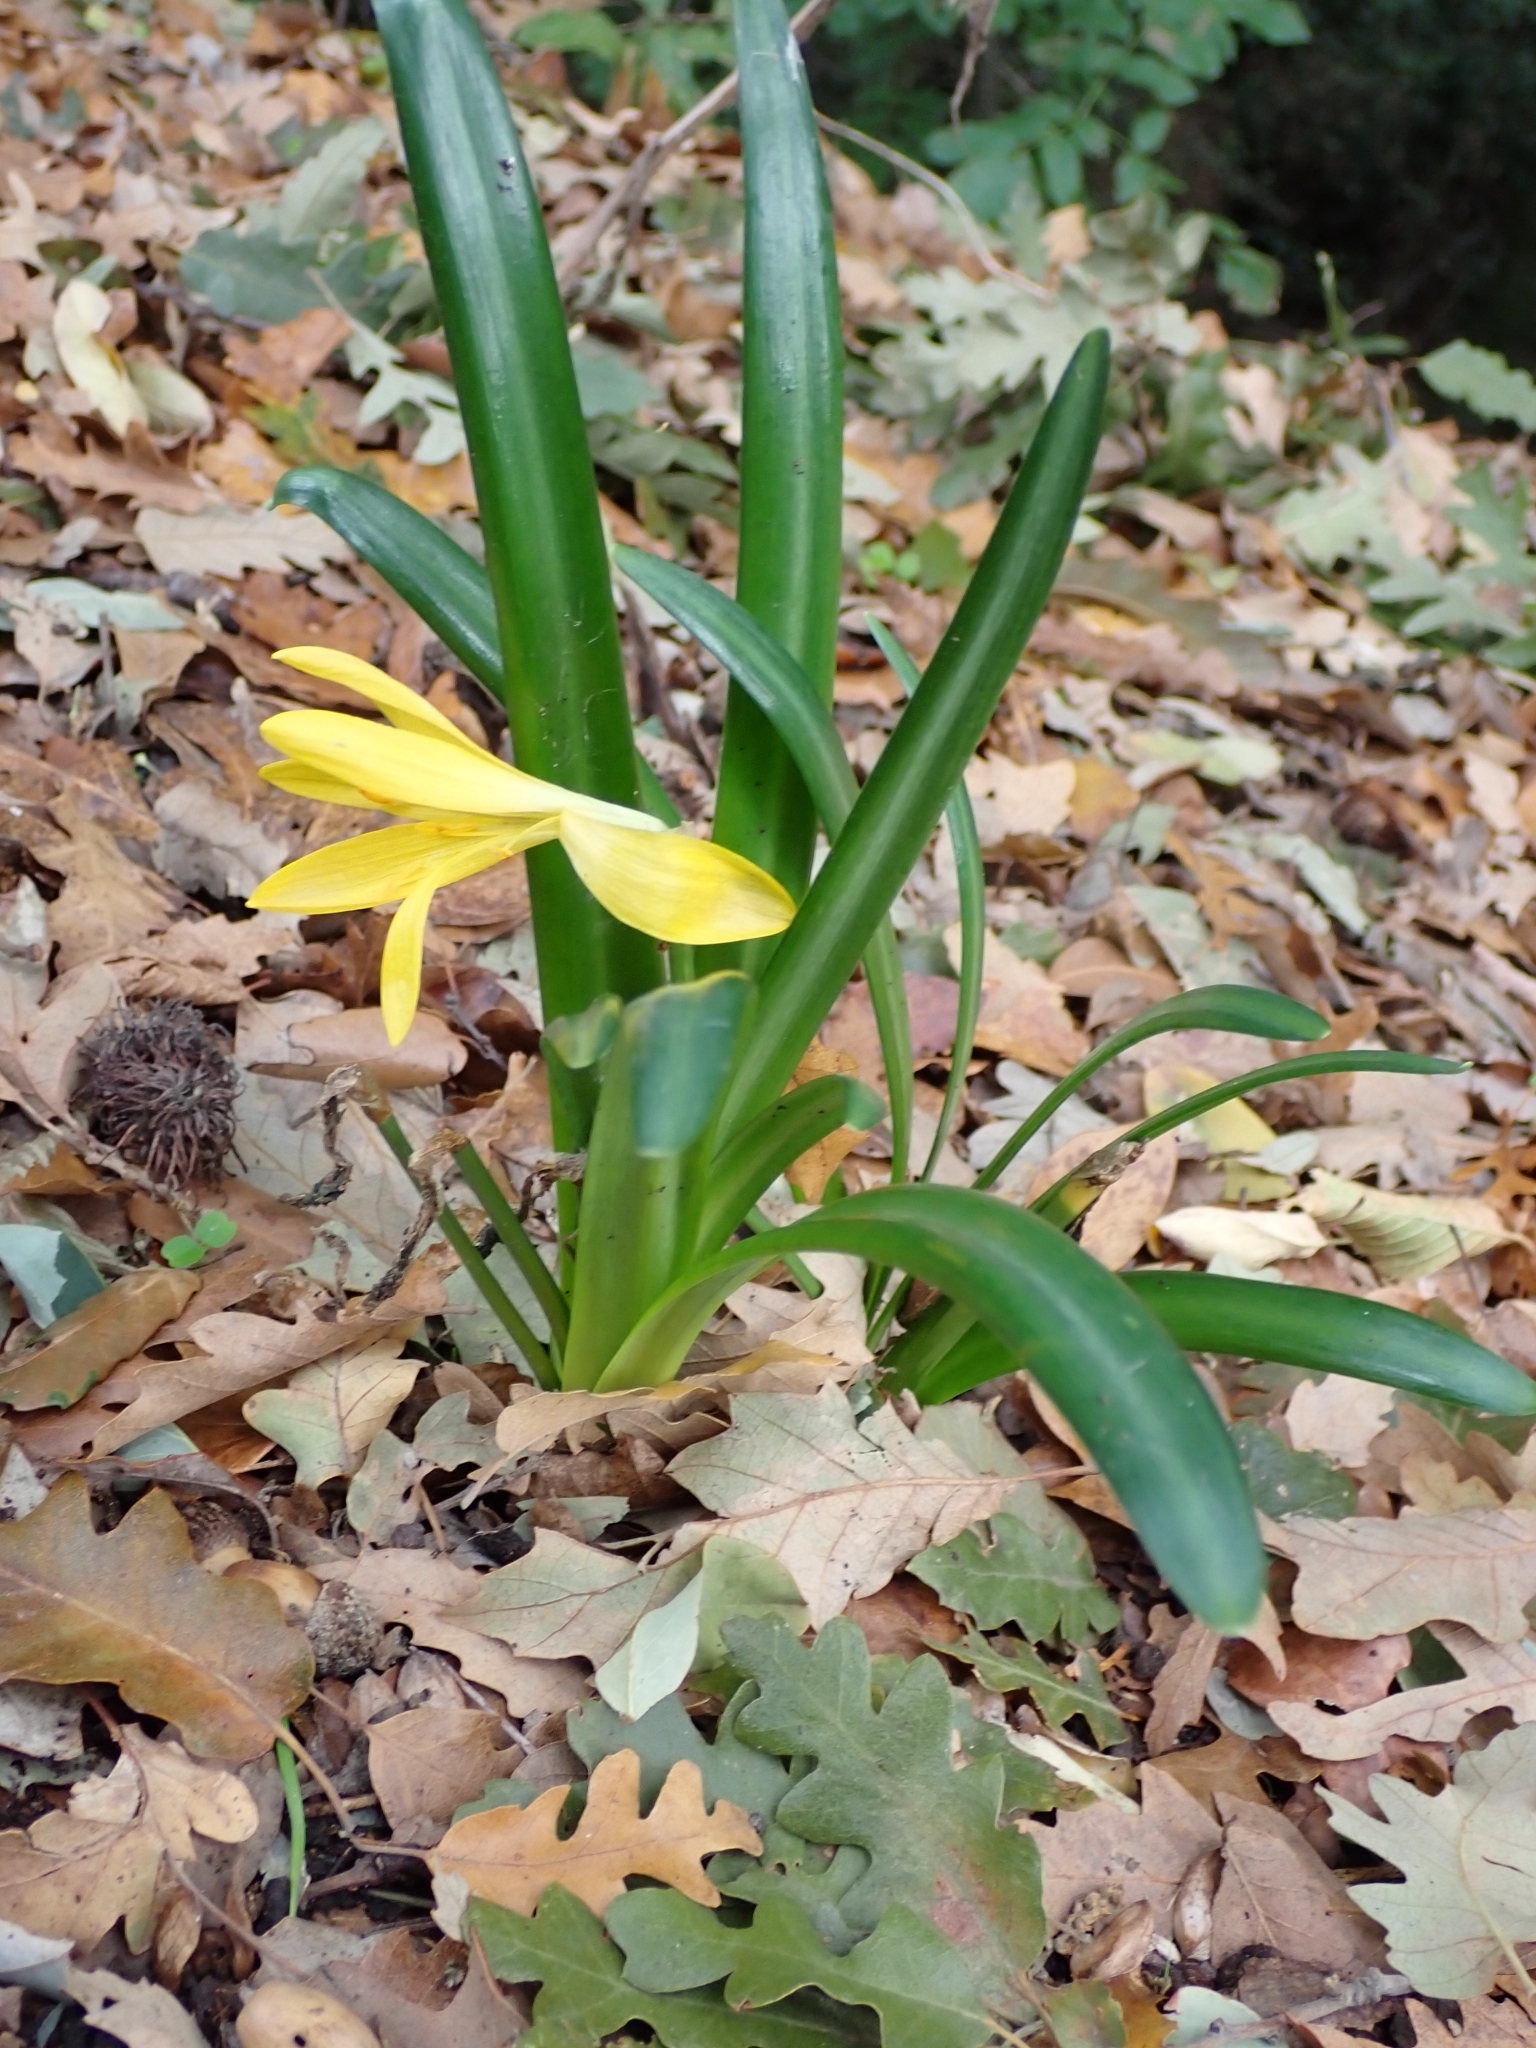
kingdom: Plantae
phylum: Tracheophyta
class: Liliopsida
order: Asparagales
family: Amaryllidaceae
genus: Sternbergia
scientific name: Sternbergia lutea
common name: Winter daffodil
